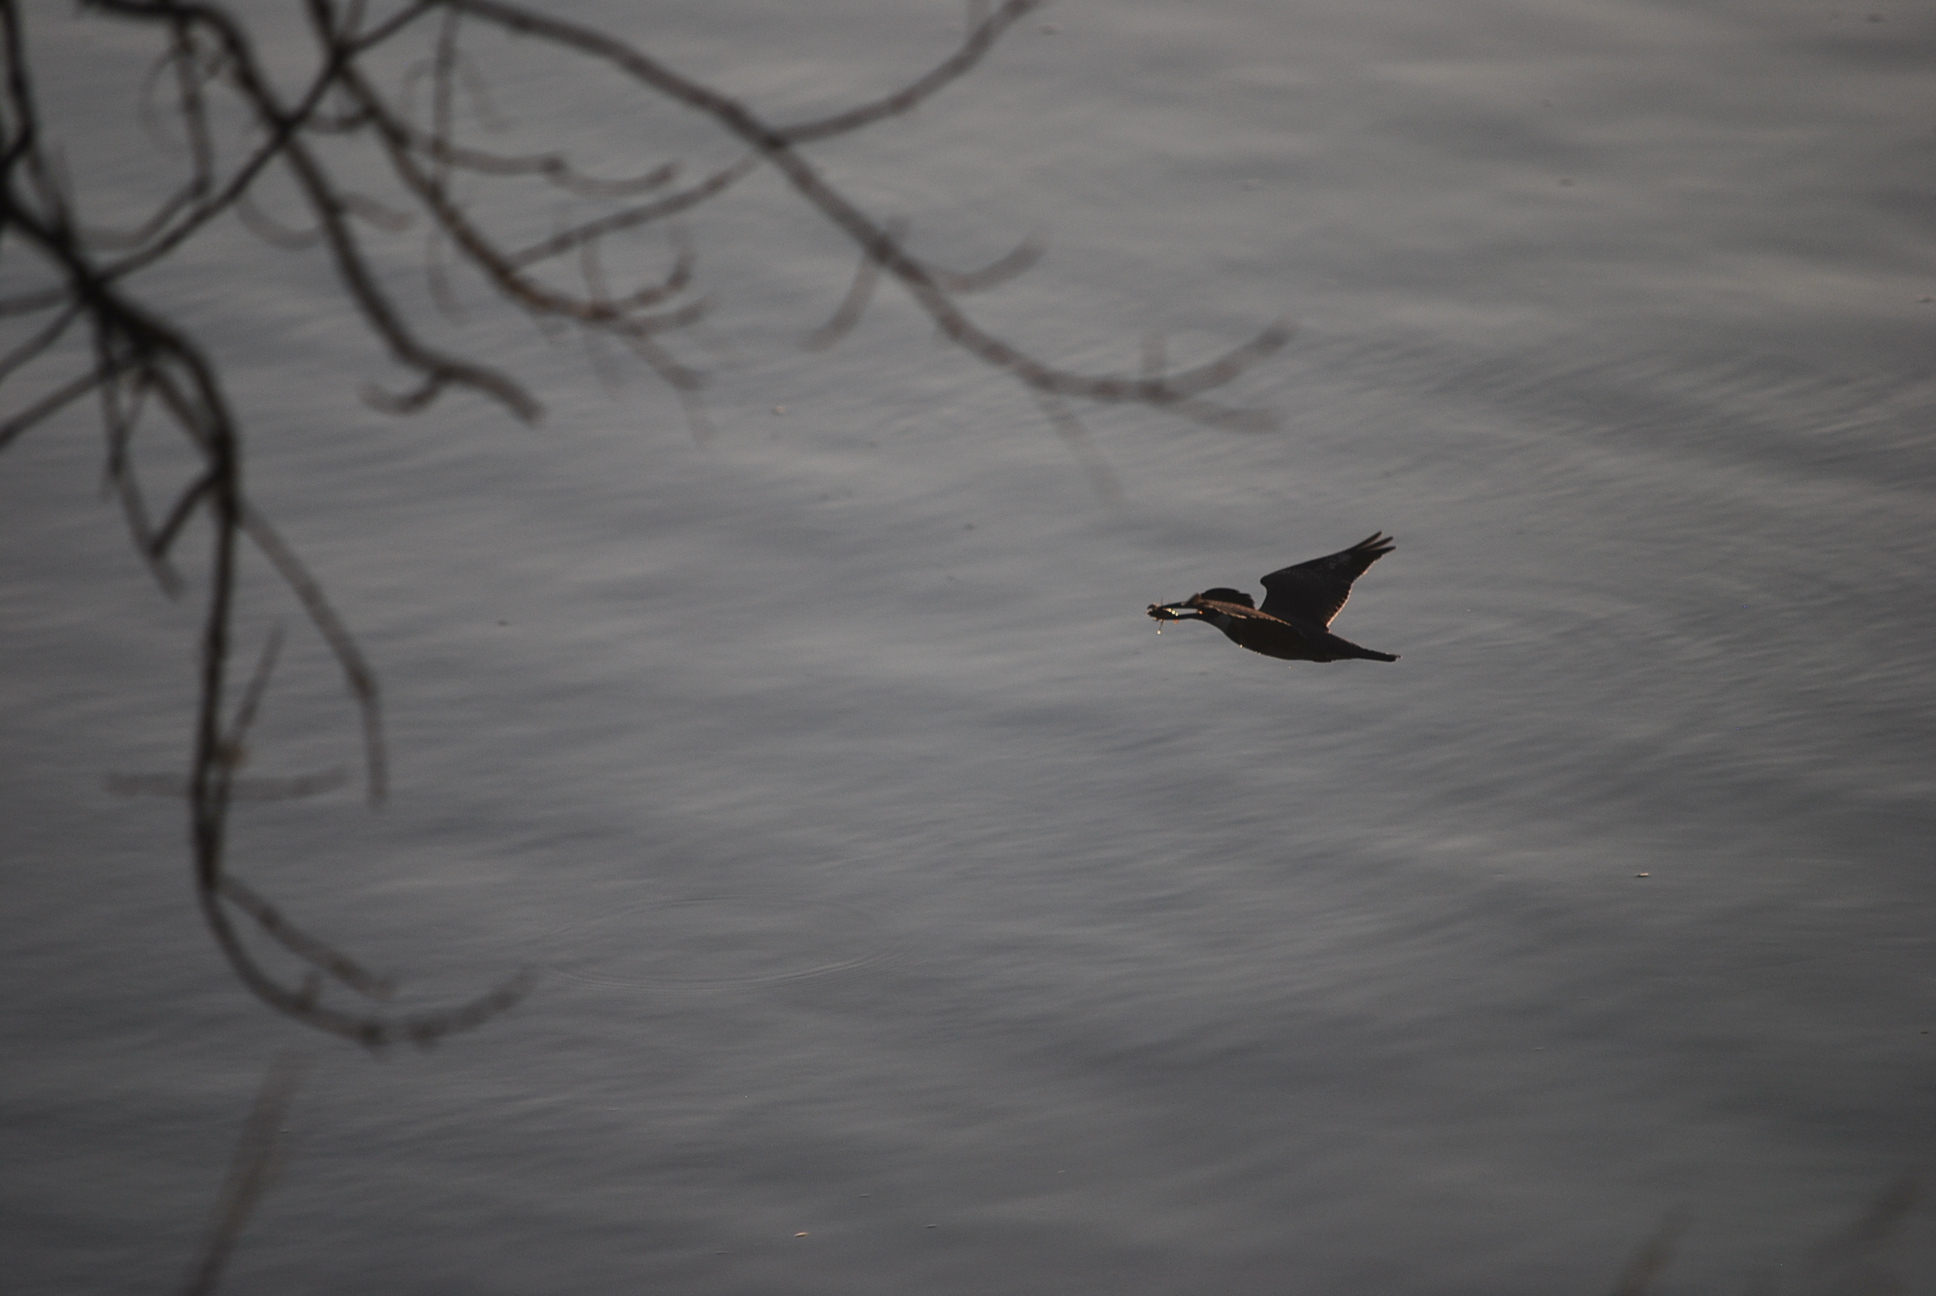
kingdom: Animalia
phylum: Chordata
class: Aves
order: Coraciiformes
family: Alcedinidae
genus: Megaceryle
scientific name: Megaceryle alcyon
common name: Belted kingfisher
